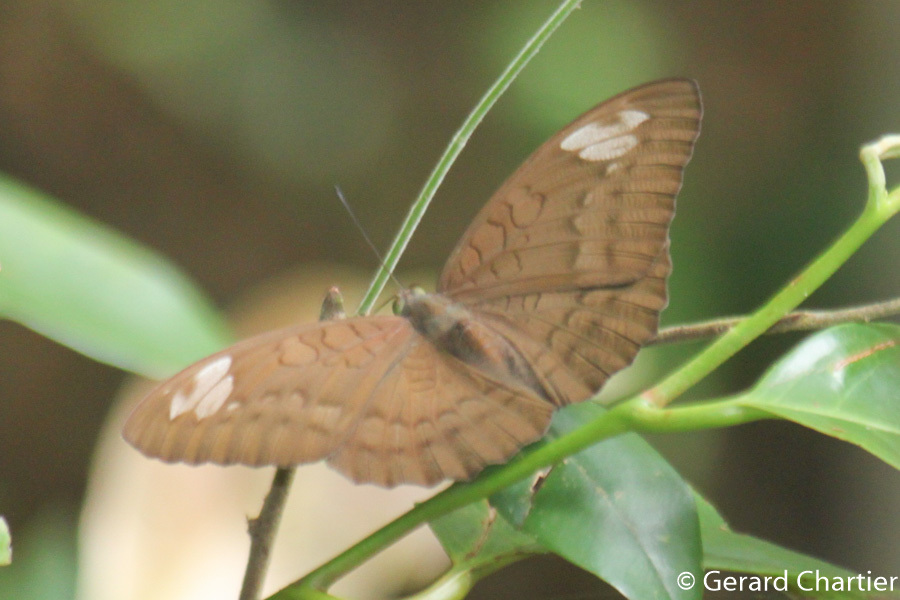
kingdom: Animalia
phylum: Arthropoda
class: Insecta
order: Lepidoptera
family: Nymphalidae
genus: Tanaecia
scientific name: Tanaecia julii
